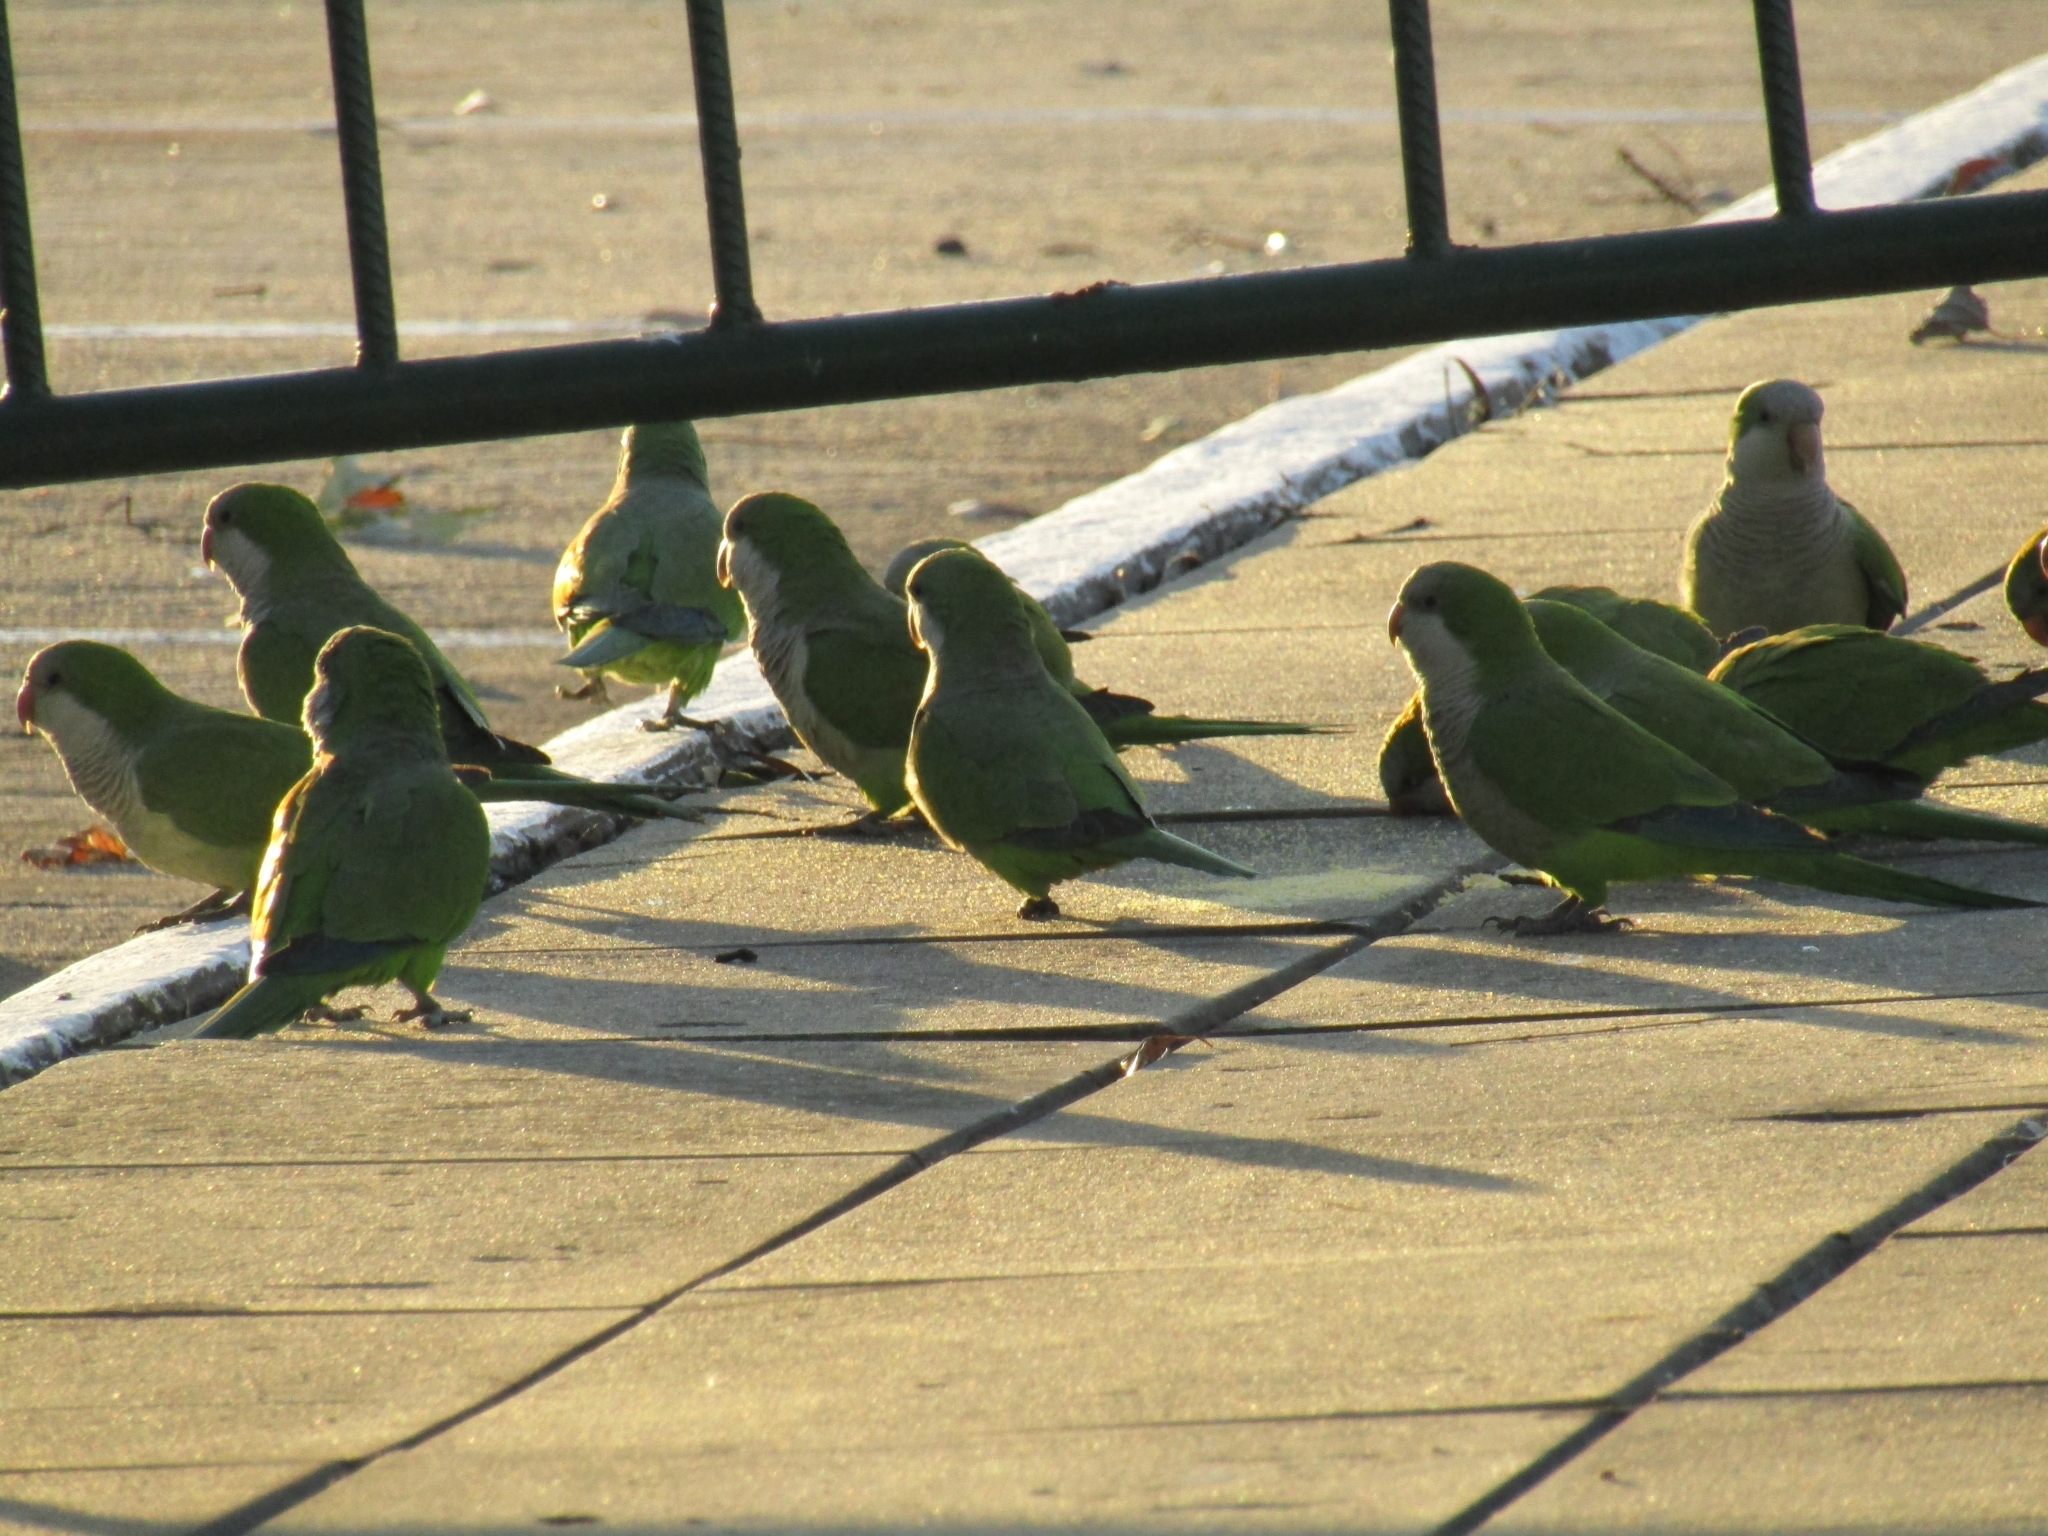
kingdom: Animalia
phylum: Chordata
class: Aves
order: Psittaciformes
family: Psittacidae
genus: Myiopsitta
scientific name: Myiopsitta monachus
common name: Monk parakeet
